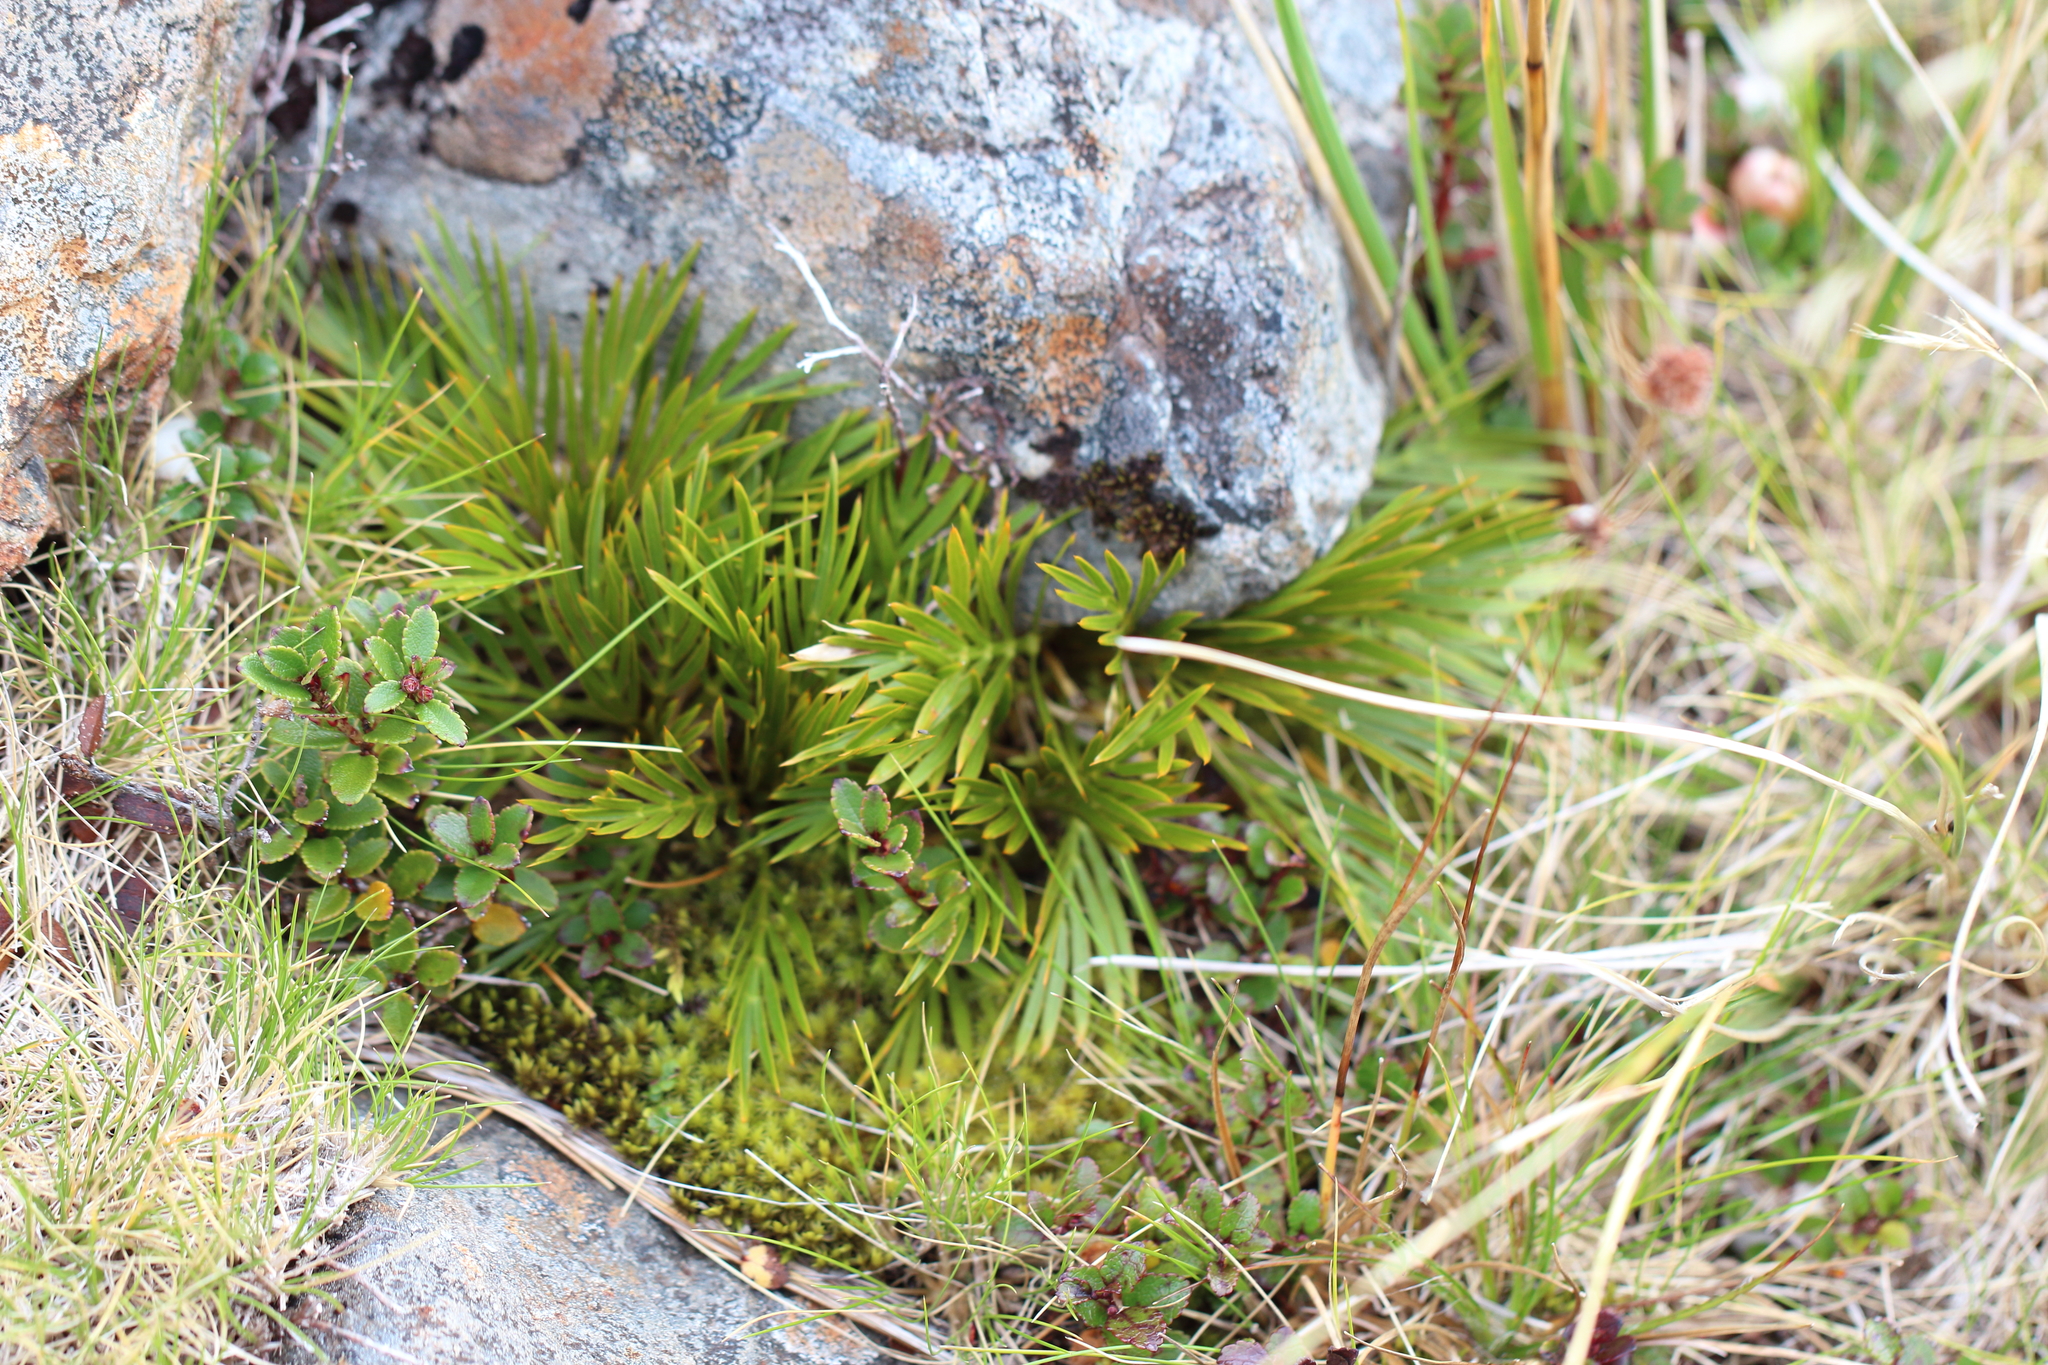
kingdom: Plantae
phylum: Tracheophyta
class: Magnoliopsida
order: Apiales
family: Apiaceae
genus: Aciphylla
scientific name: Aciphylla similis
